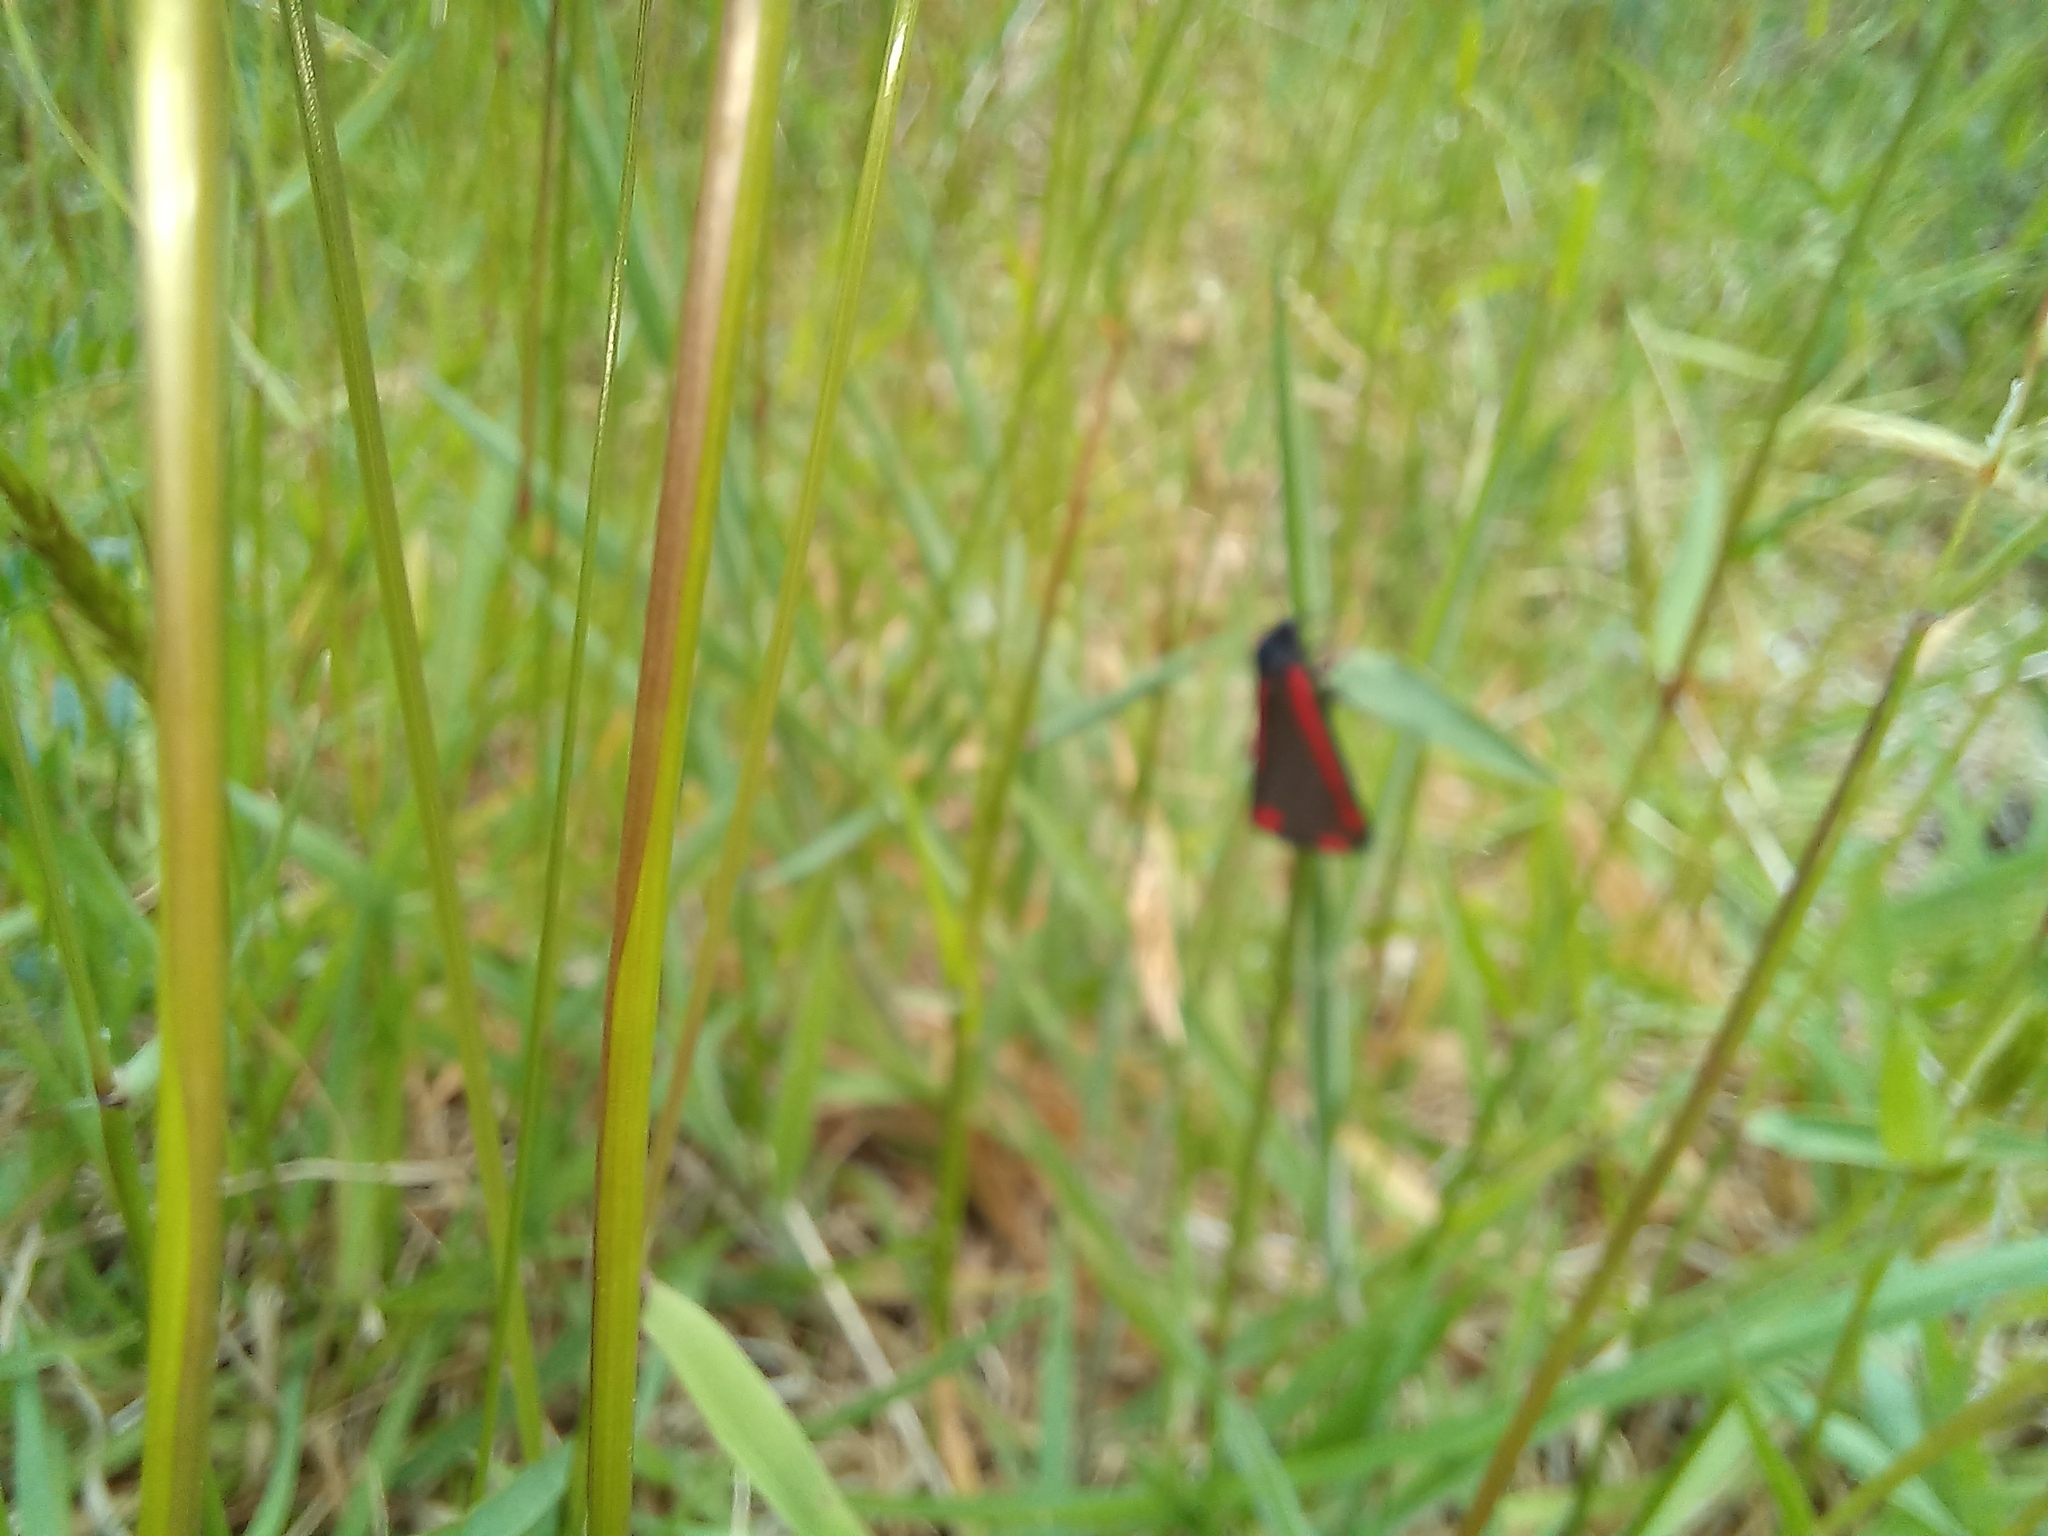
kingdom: Animalia
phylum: Arthropoda
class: Insecta
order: Lepidoptera
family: Erebidae
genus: Tyria
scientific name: Tyria jacobaeae
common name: Cinnabar
